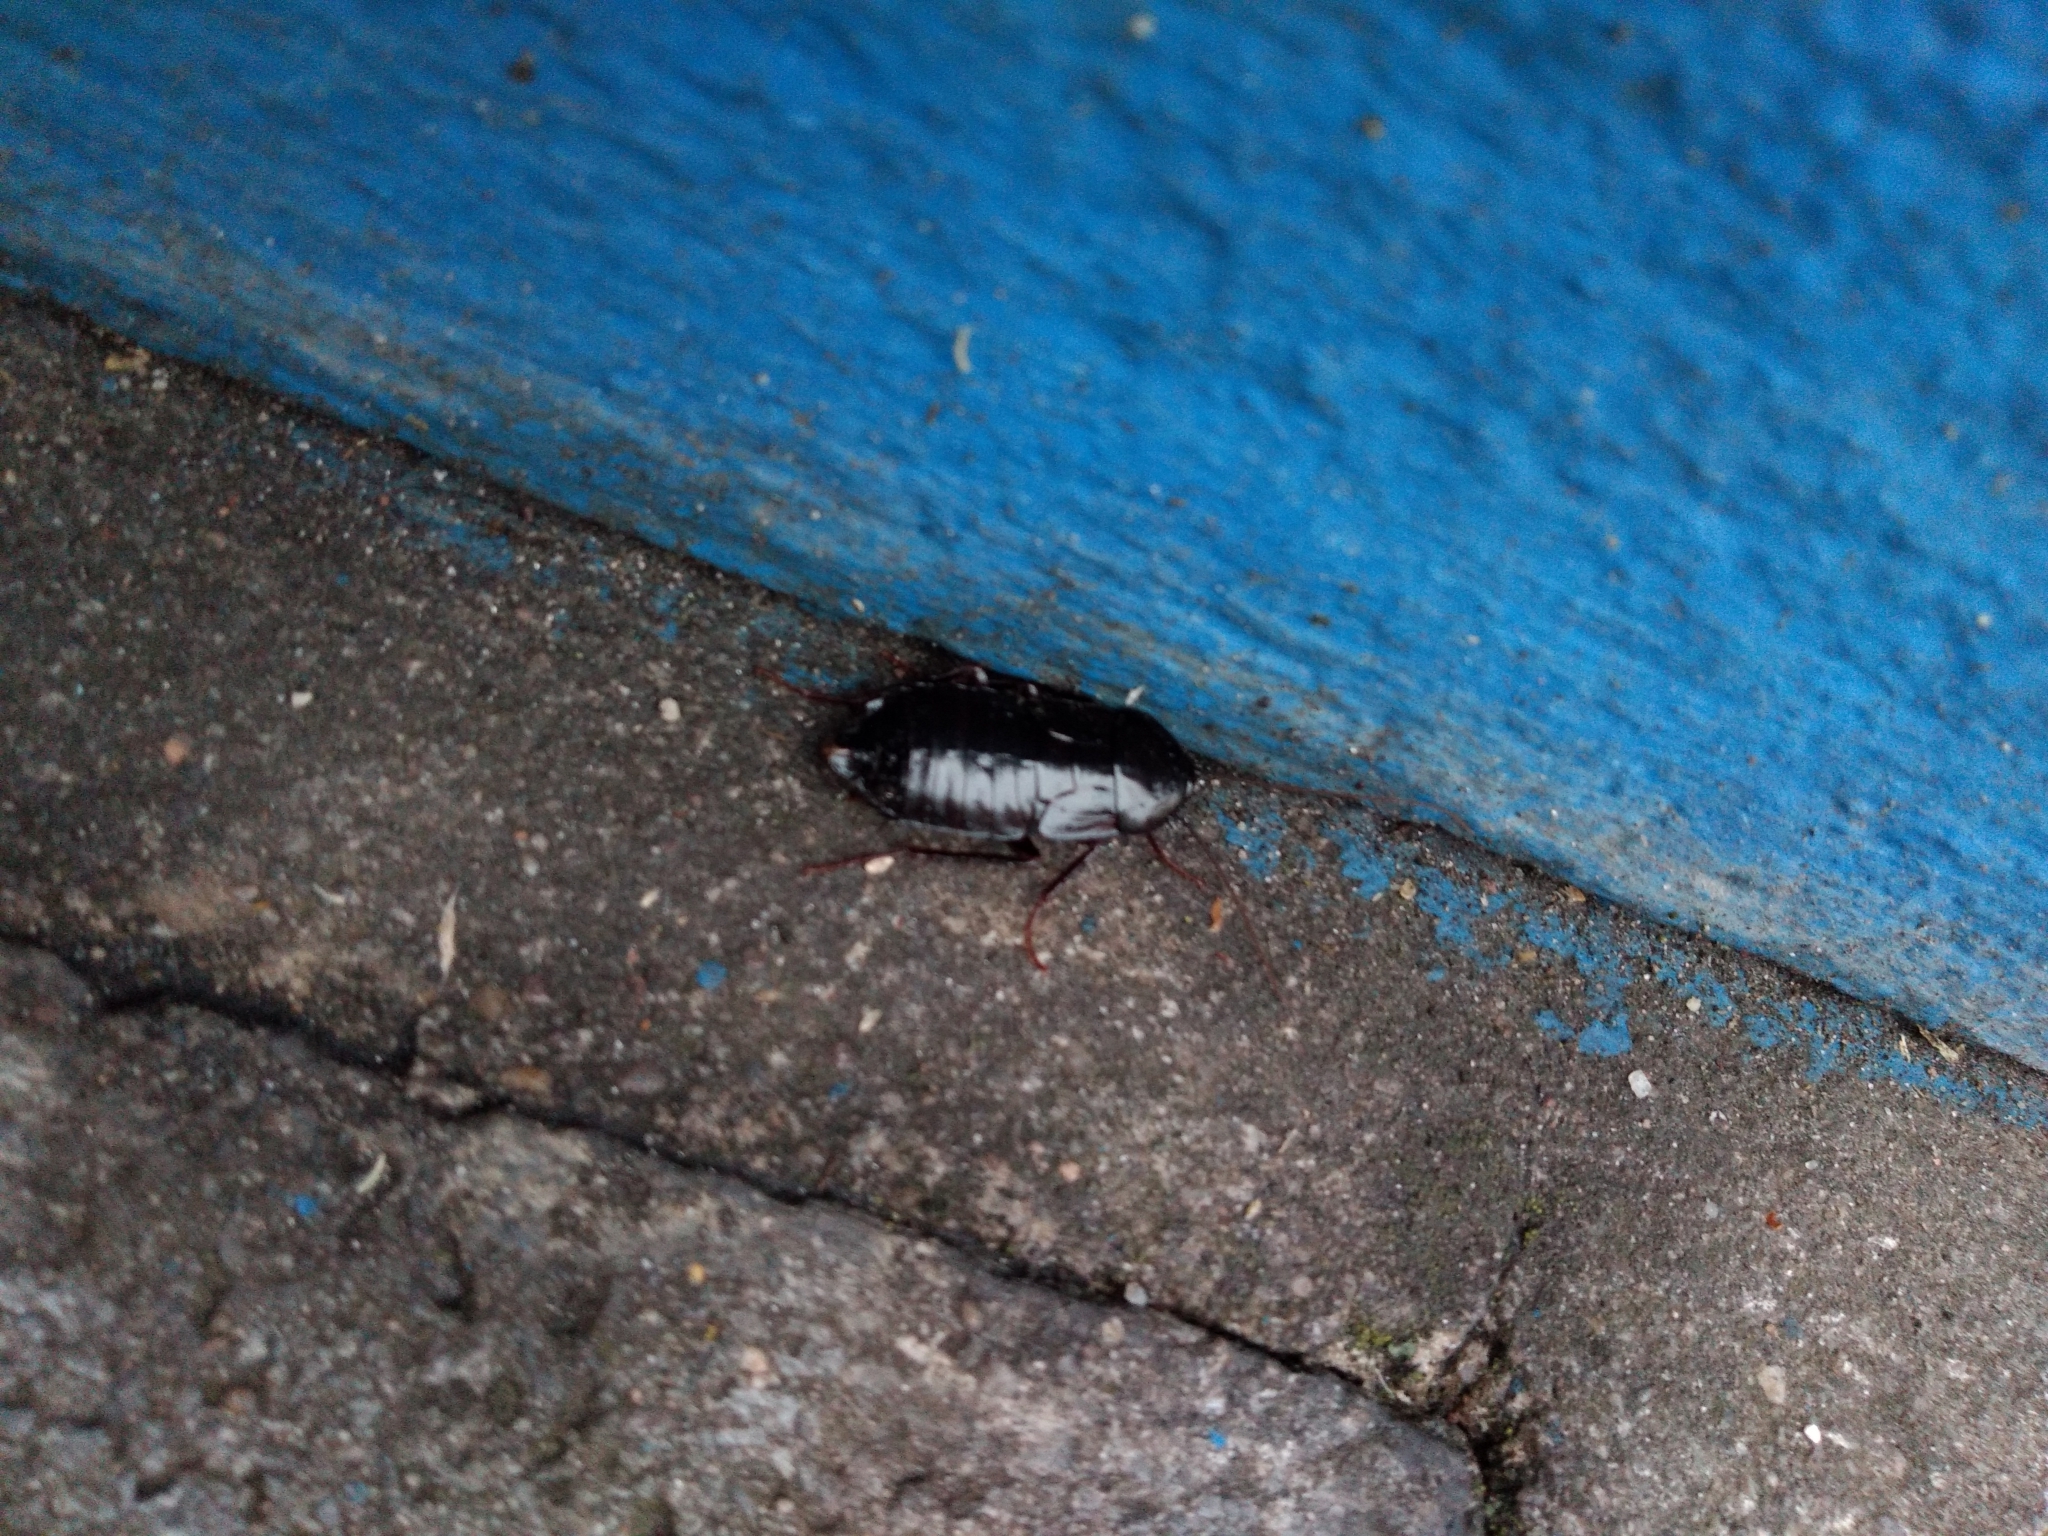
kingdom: Animalia
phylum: Arthropoda
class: Insecta
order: Blattodea
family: Blattidae
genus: Blatta
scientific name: Blatta orientalis
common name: Oriental cockroach
